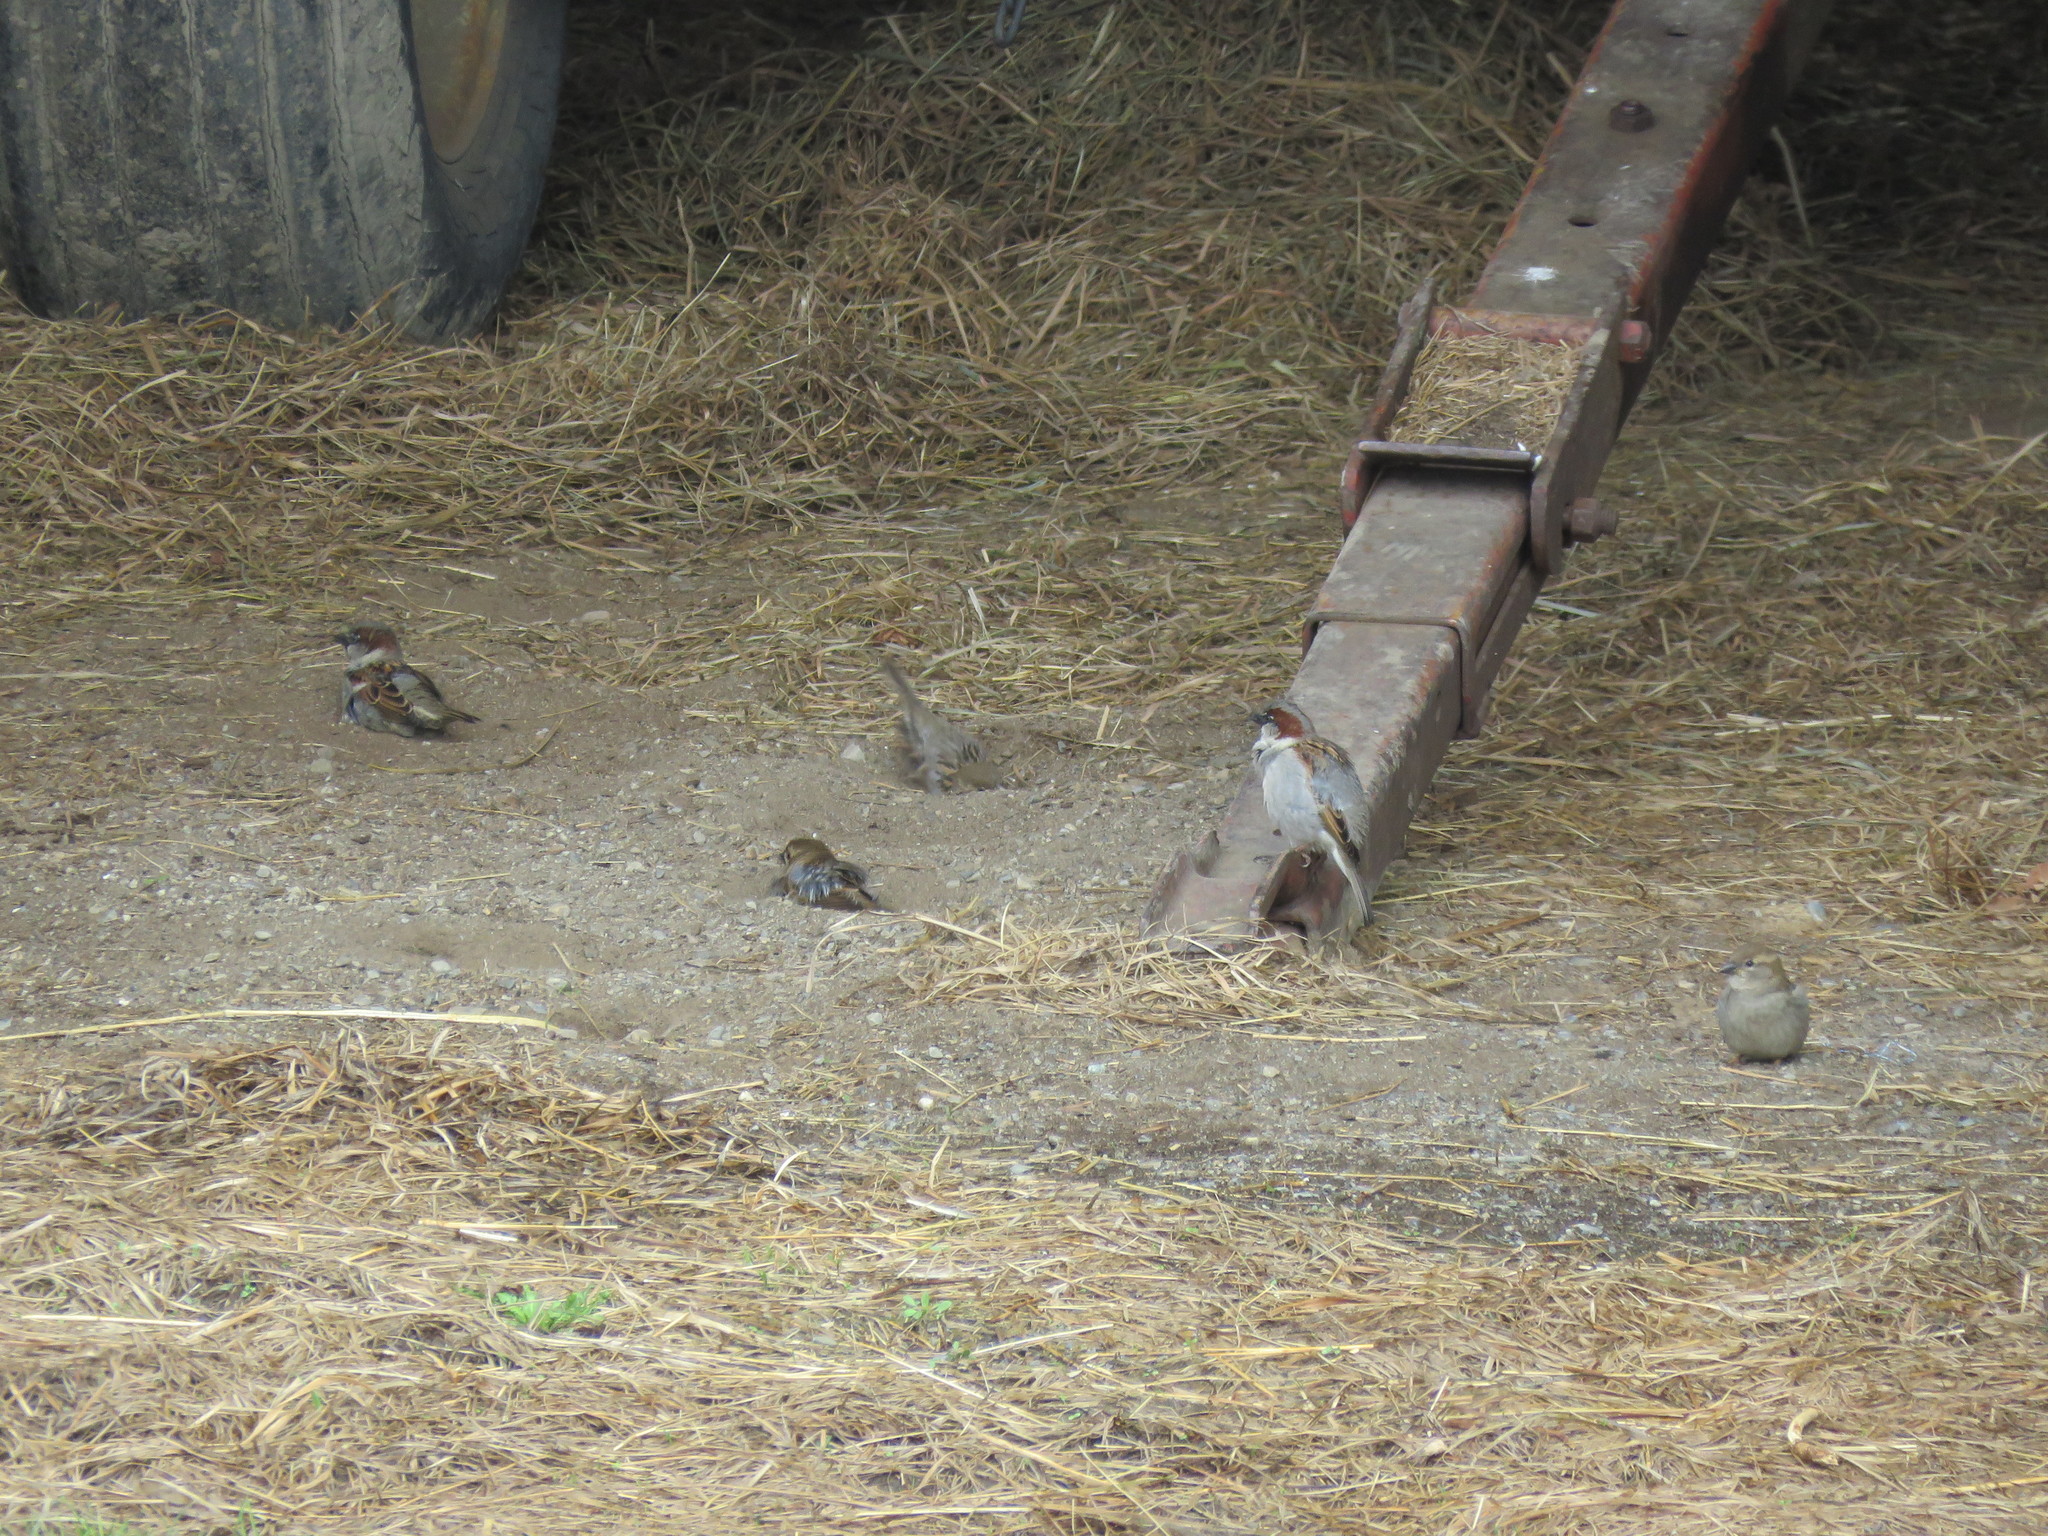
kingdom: Animalia
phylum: Chordata
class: Aves
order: Passeriformes
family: Passeridae
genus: Passer
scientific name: Passer domesticus
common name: House sparrow
